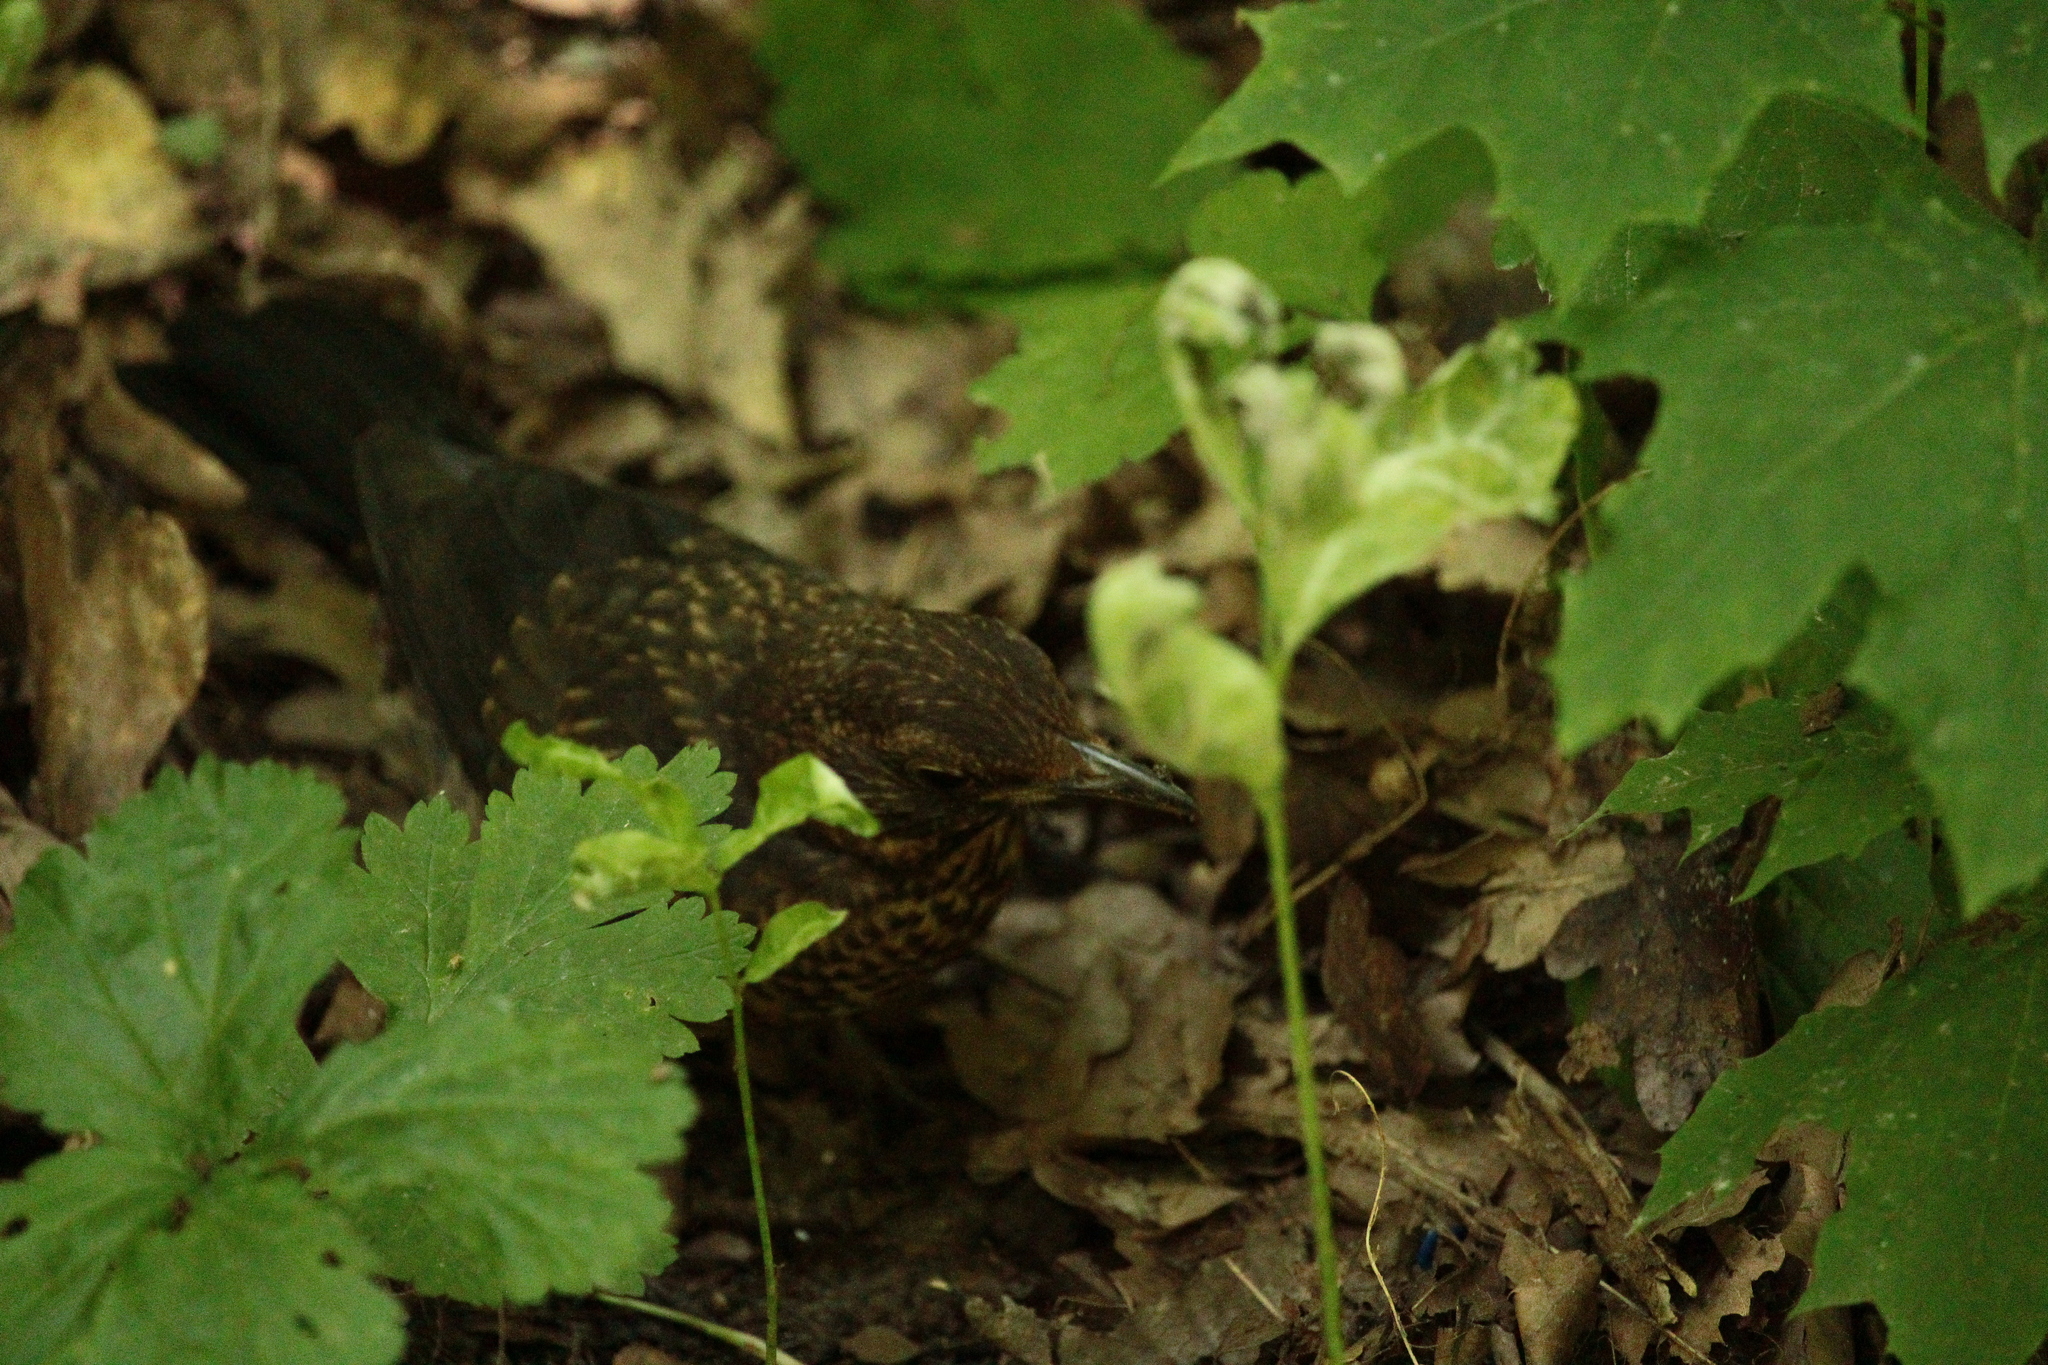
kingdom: Animalia
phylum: Chordata
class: Aves
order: Passeriformes
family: Turdidae
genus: Turdus
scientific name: Turdus merula
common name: Common blackbird
